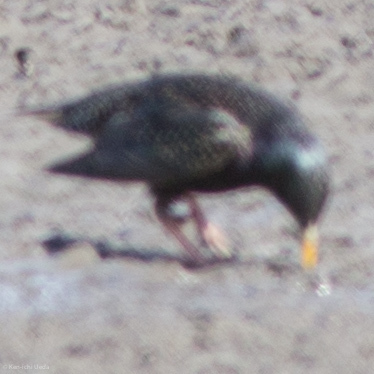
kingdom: Animalia
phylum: Chordata
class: Aves
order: Passeriformes
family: Sturnidae
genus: Sturnus
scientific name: Sturnus vulgaris
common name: Common starling
